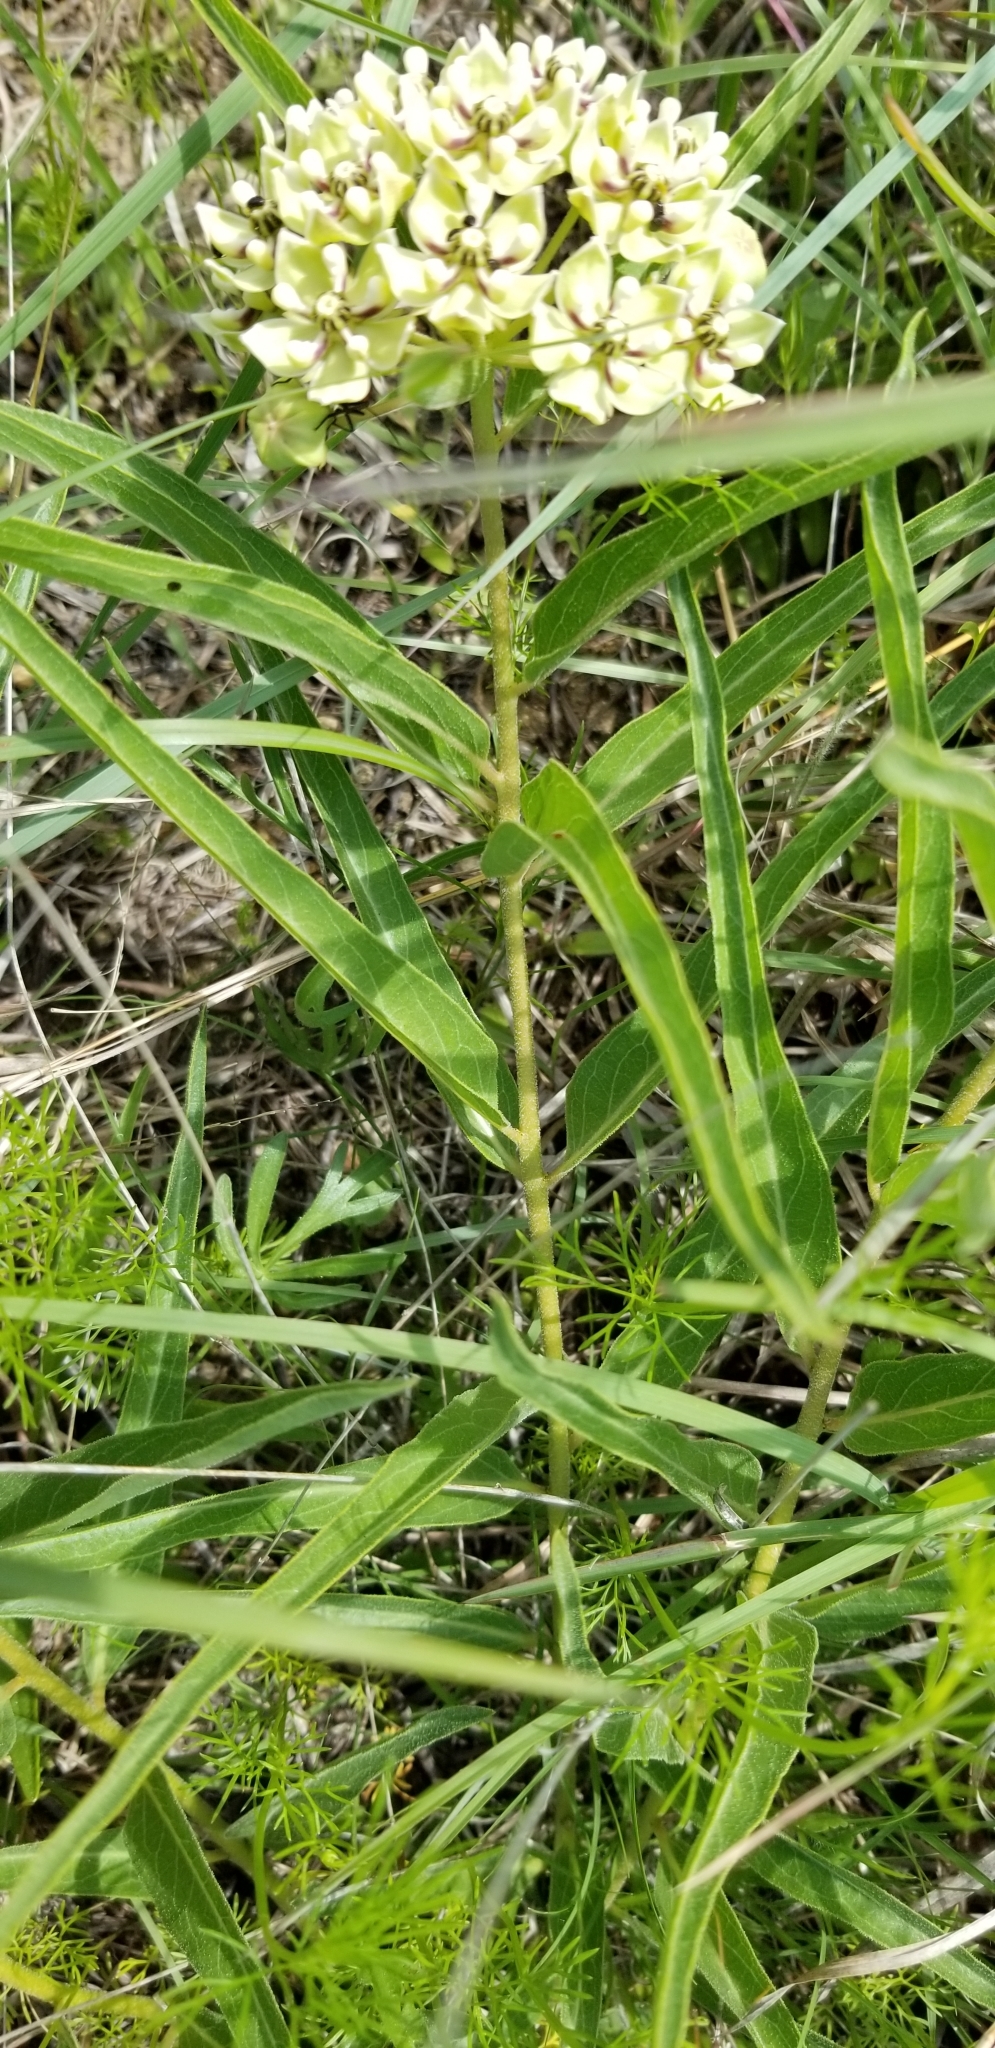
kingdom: Plantae
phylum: Tracheophyta
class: Magnoliopsida
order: Gentianales
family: Apocynaceae
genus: Asclepias
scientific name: Asclepias asperula
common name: Antelope horns
